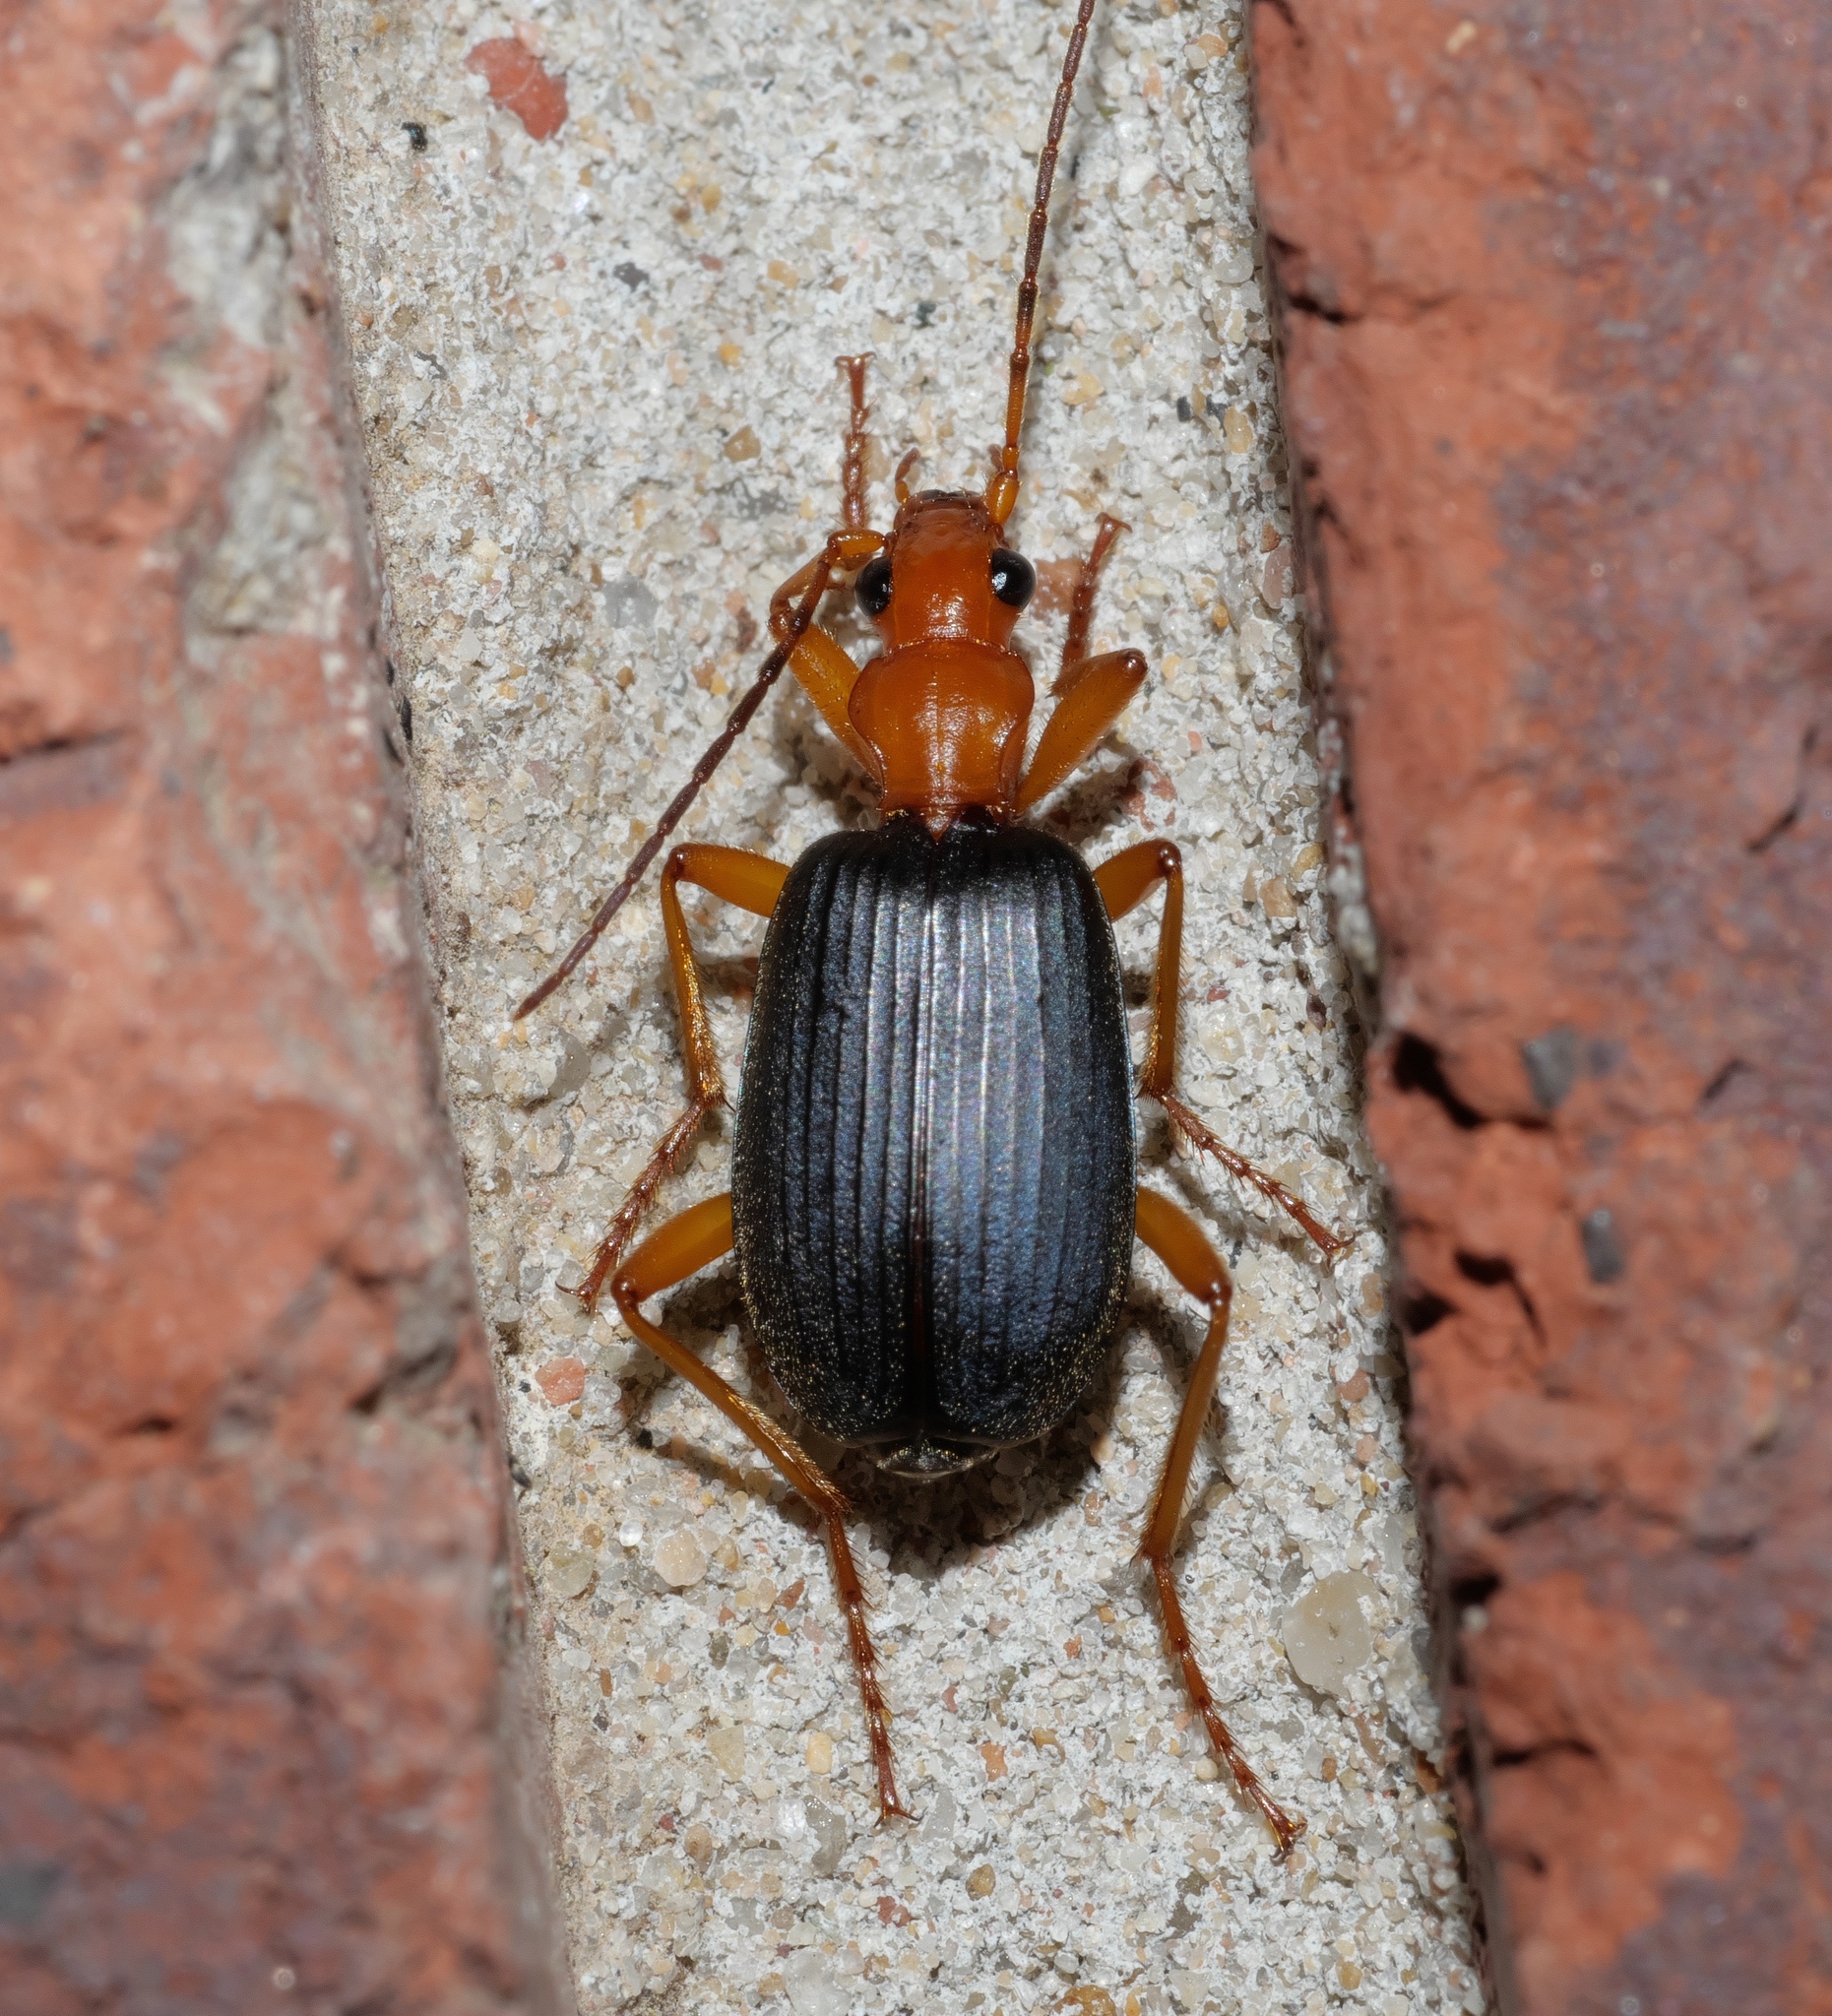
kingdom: Animalia
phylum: Arthropoda
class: Insecta
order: Coleoptera
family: Carabidae
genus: Brachinus
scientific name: Brachinus tenuicollis
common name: Narrow-necked little bombardier beetle
